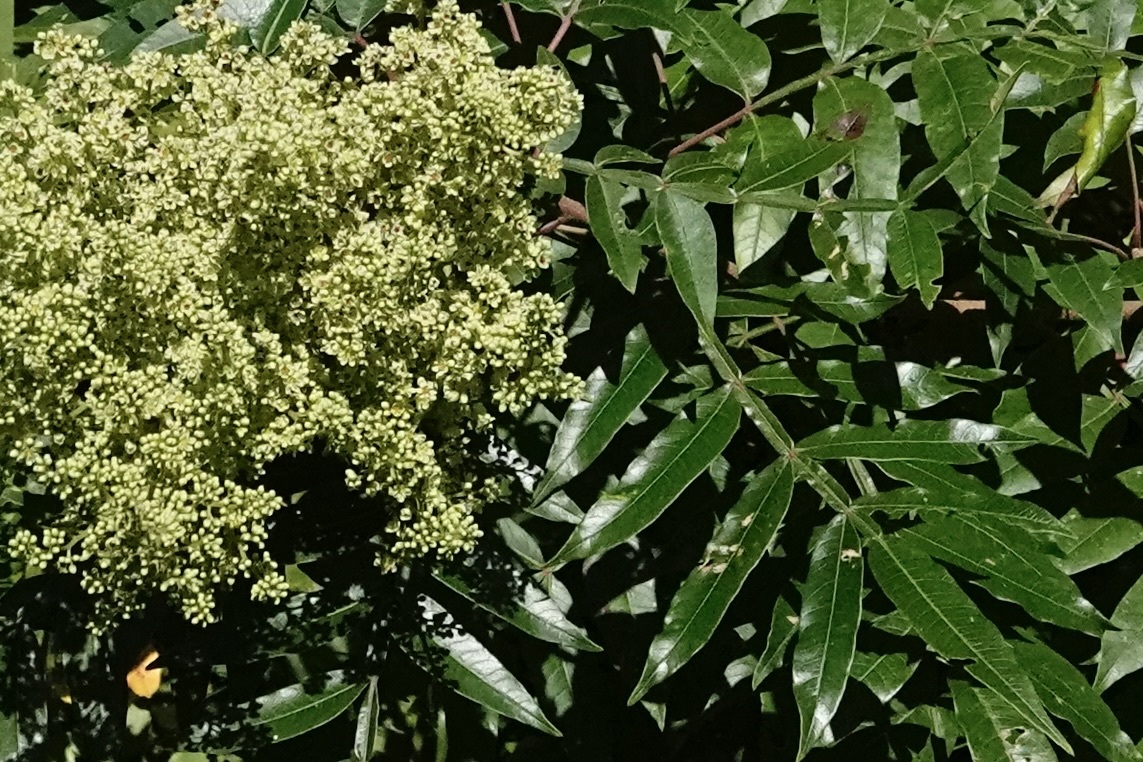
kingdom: Plantae
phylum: Tracheophyta
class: Magnoliopsida
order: Sapindales
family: Anacardiaceae
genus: Rhus
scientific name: Rhus copallina
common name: Shining sumac
